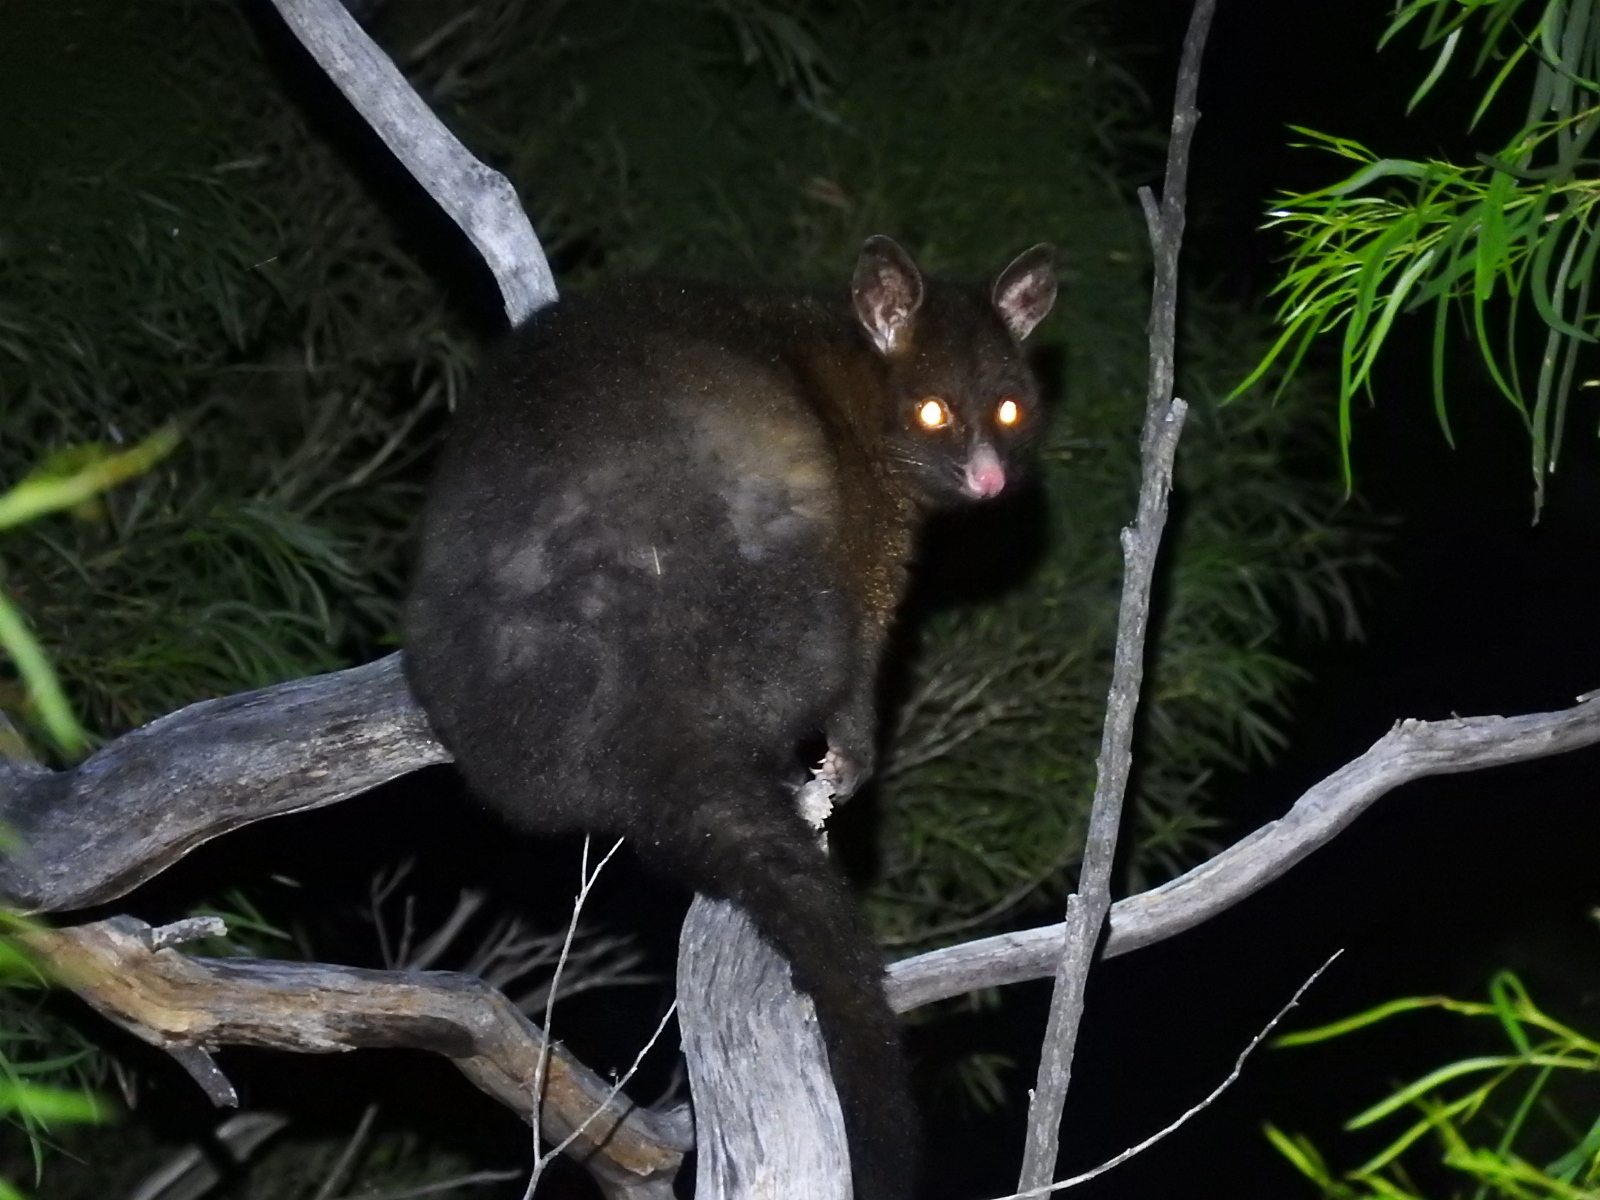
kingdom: Animalia
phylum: Chordata
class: Mammalia
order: Diprotodontia
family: Phalangeridae
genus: Trichosurus
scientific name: Trichosurus vulpecula
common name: Common brushtail
